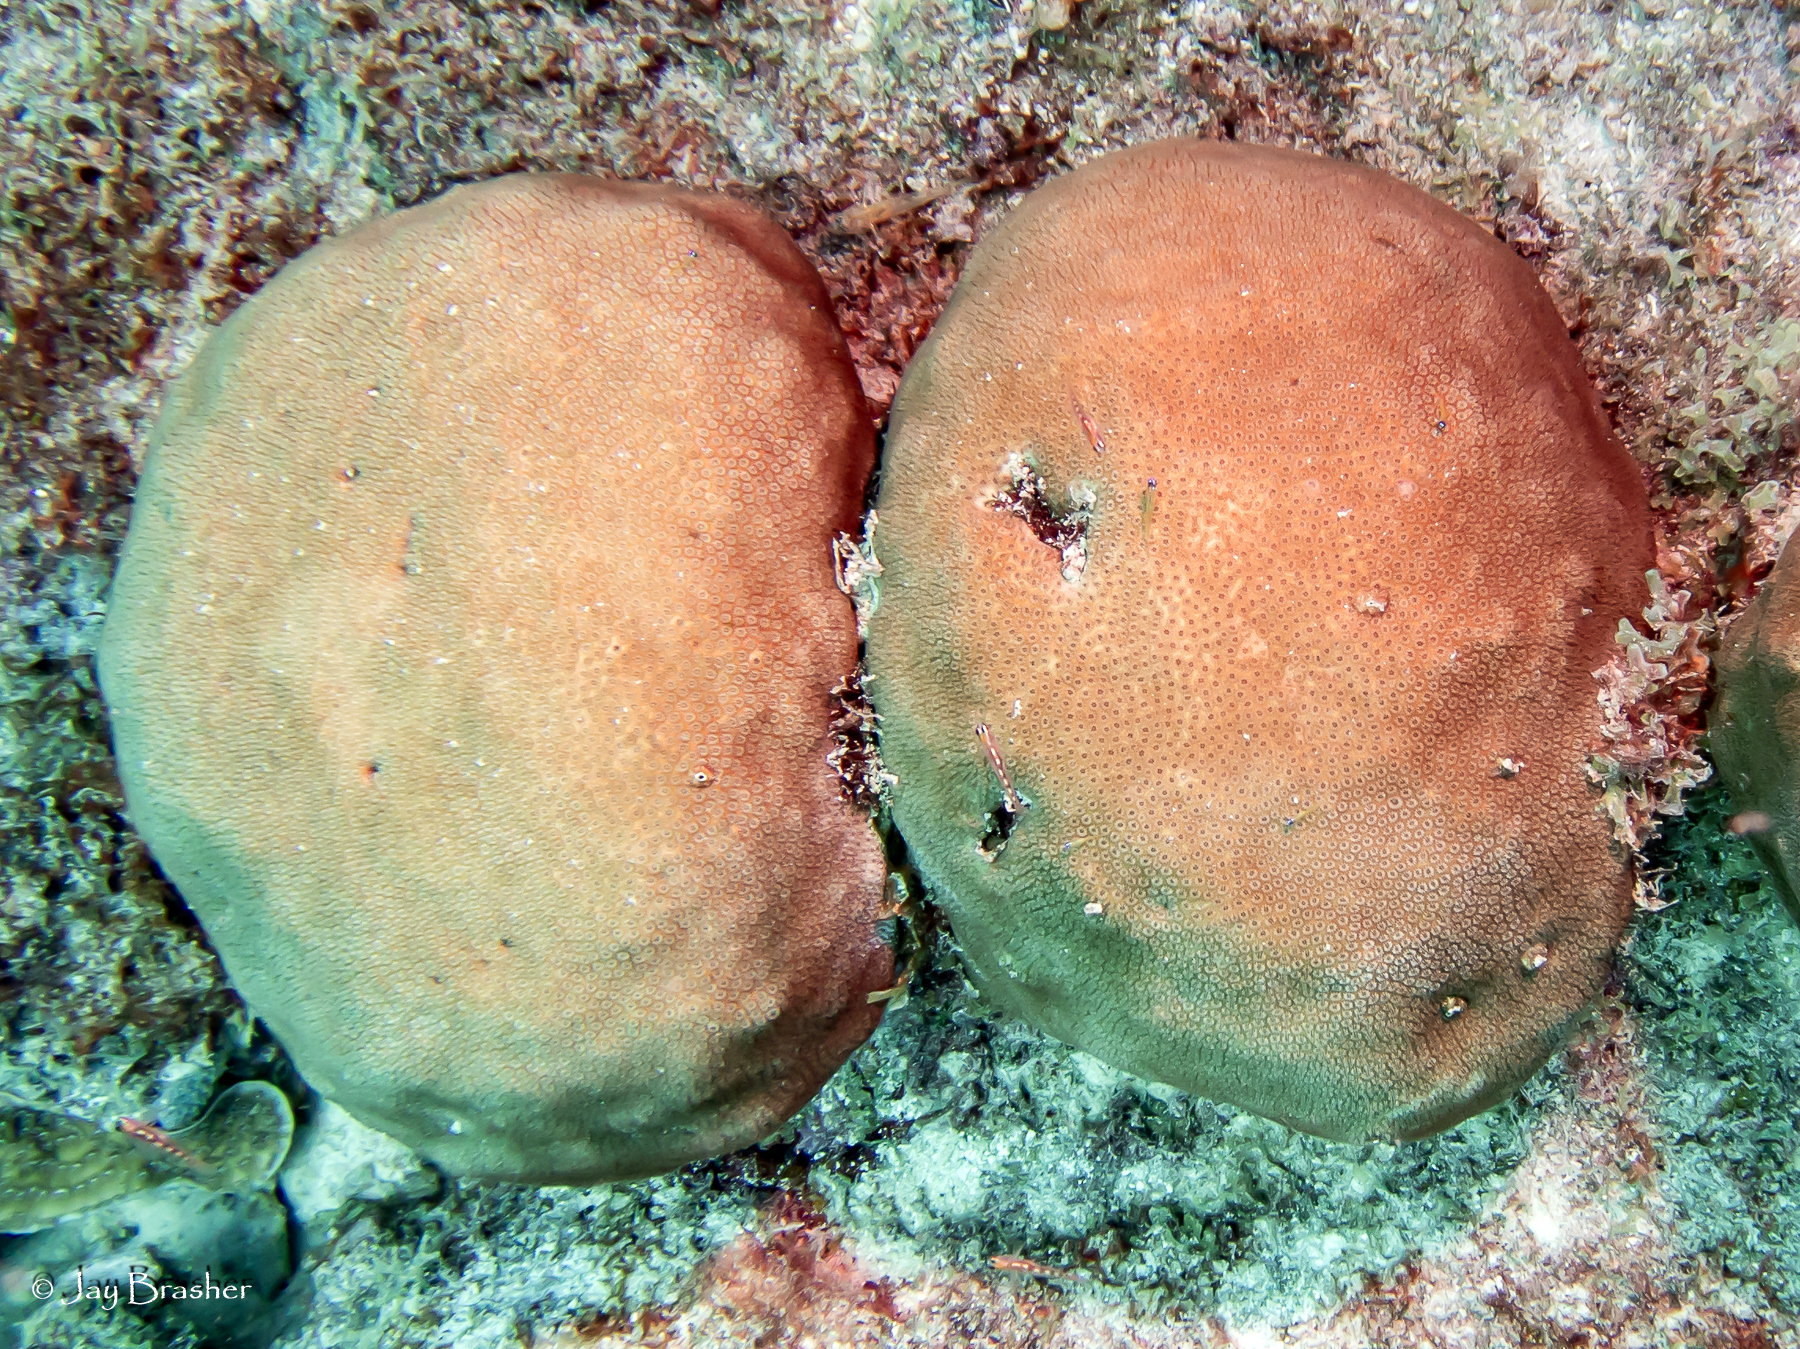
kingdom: Animalia
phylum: Cnidaria
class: Anthozoa
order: Scleractinia
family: Astrocoeniidae
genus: Stephanocoenia
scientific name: Stephanocoenia intersepta
